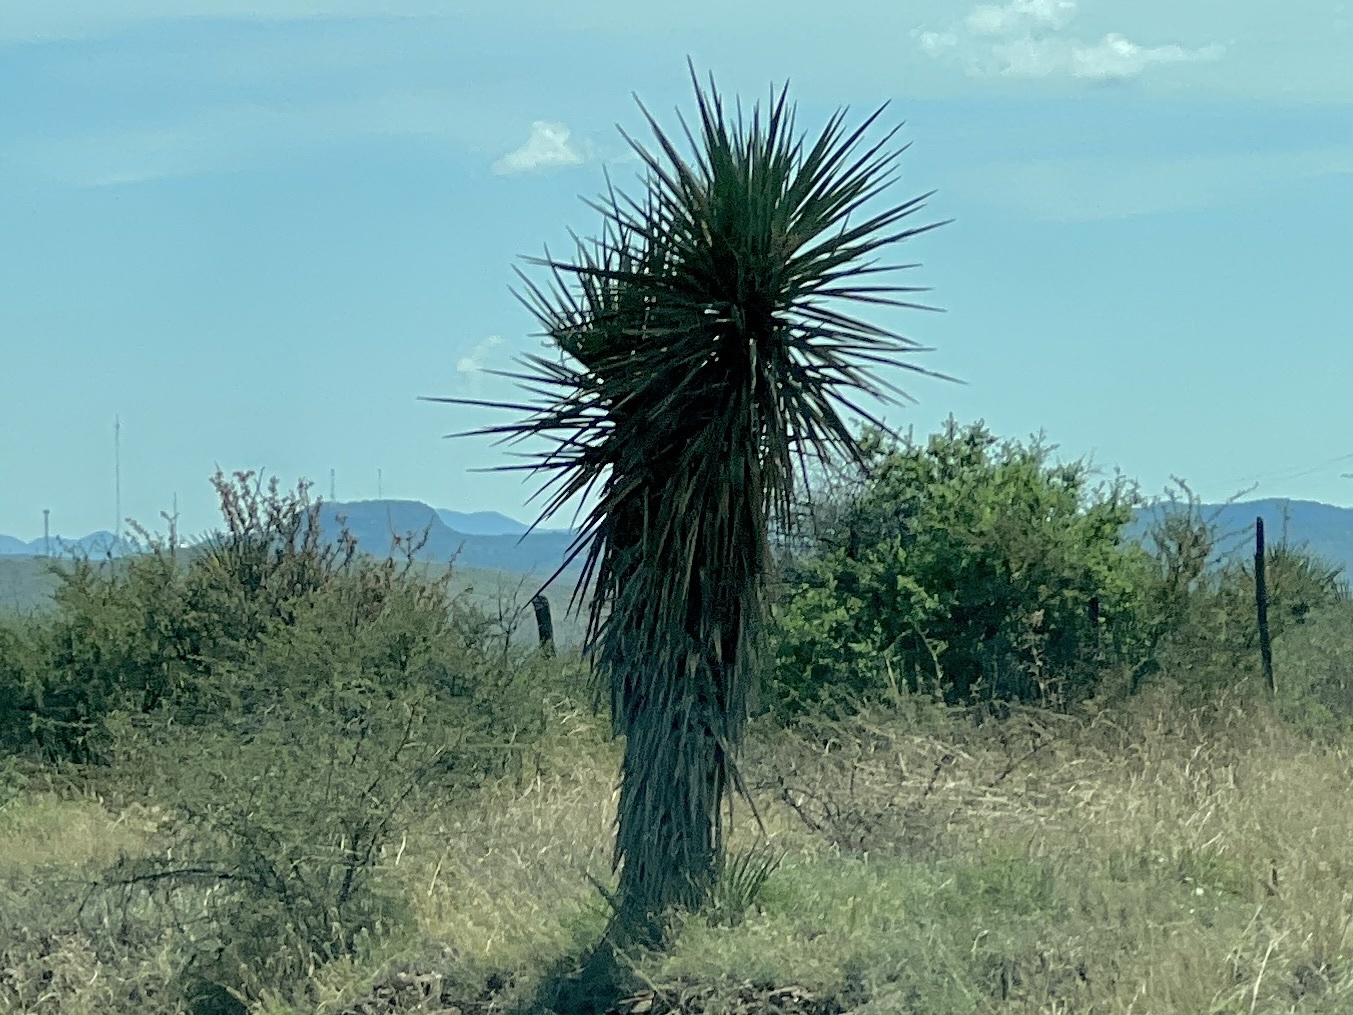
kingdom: Plantae
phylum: Tracheophyta
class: Liliopsida
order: Asparagales
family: Asparagaceae
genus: Yucca
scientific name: Yucca treculiana
